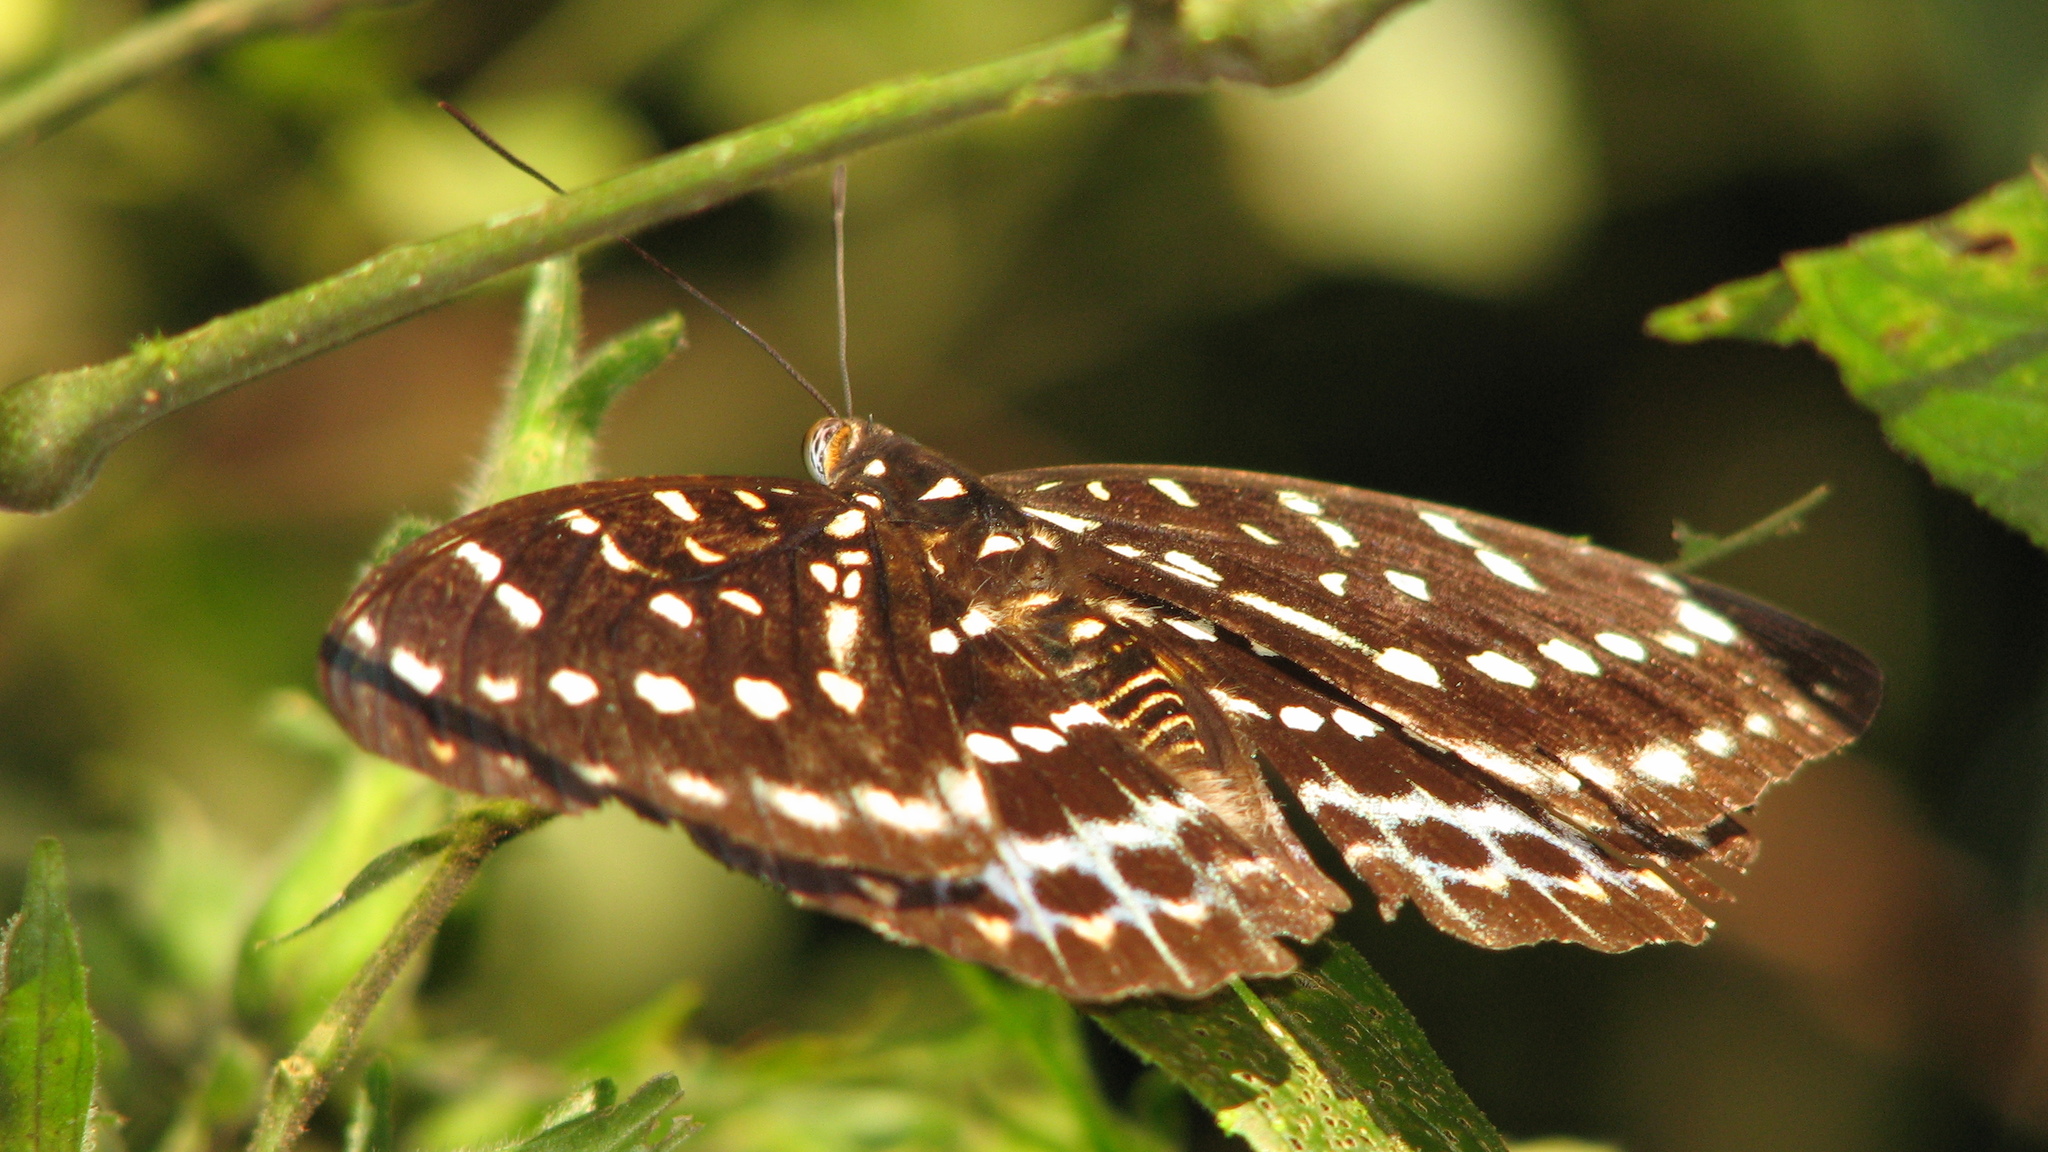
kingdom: Animalia
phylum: Arthropoda
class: Insecta
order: Lepidoptera
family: Nymphalidae
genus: Lexias
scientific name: Lexias dirtea
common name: Black-tipped archduke
